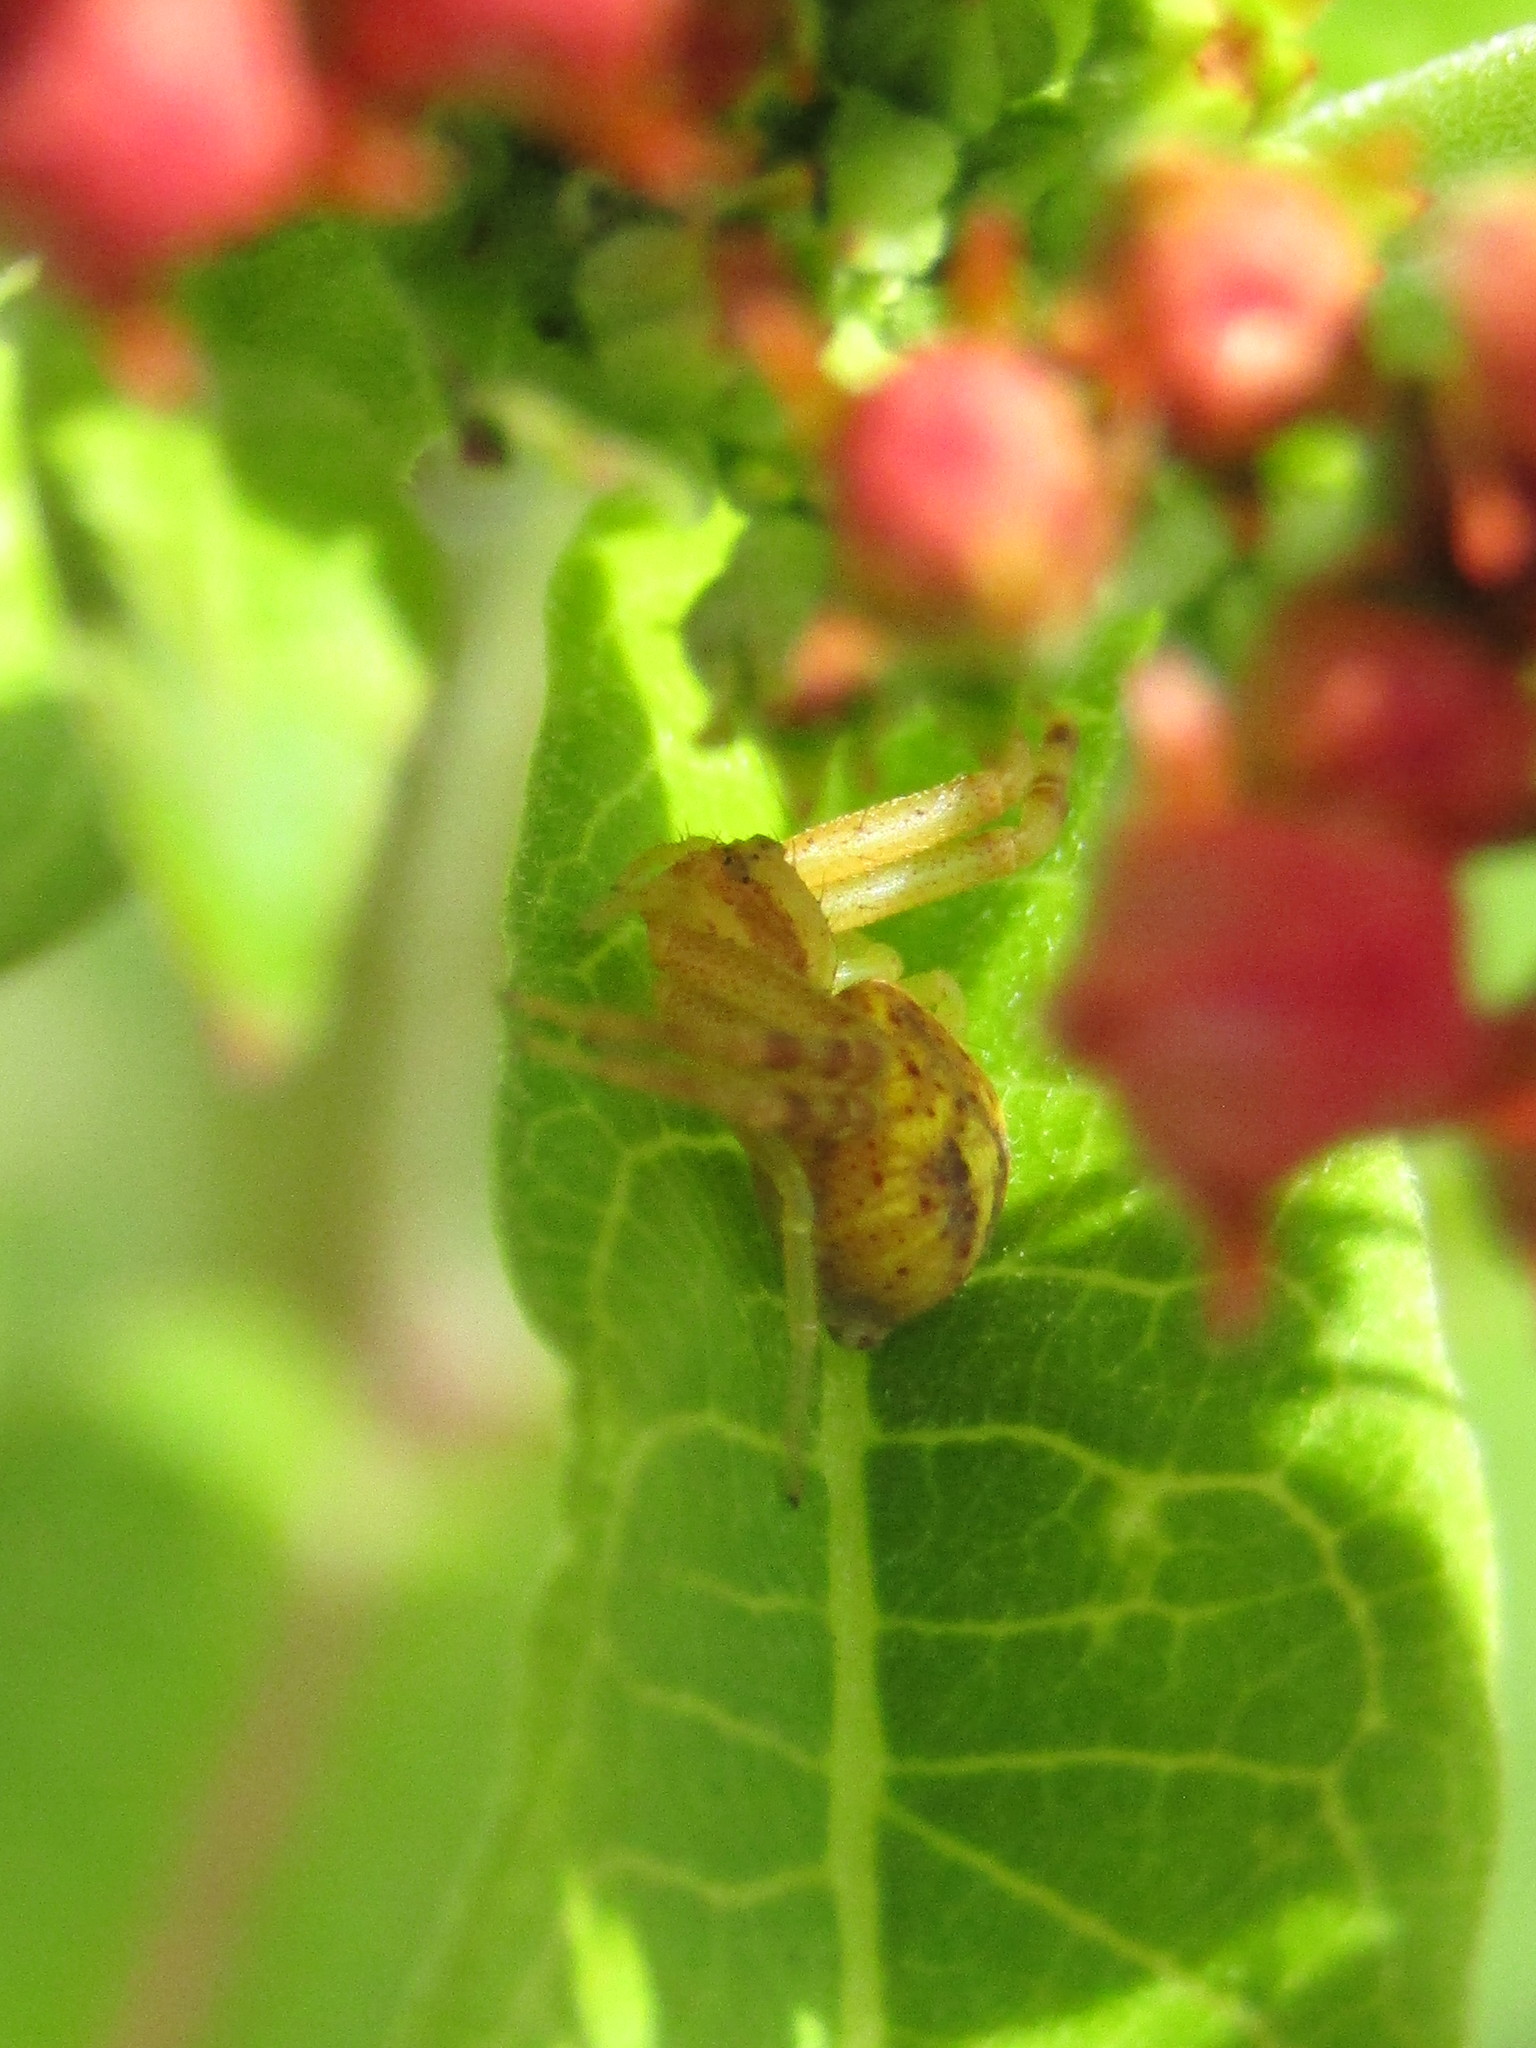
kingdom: Animalia
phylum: Arthropoda
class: Arachnida
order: Araneae
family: Thomisidae
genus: Misumenops
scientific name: Misumenops
